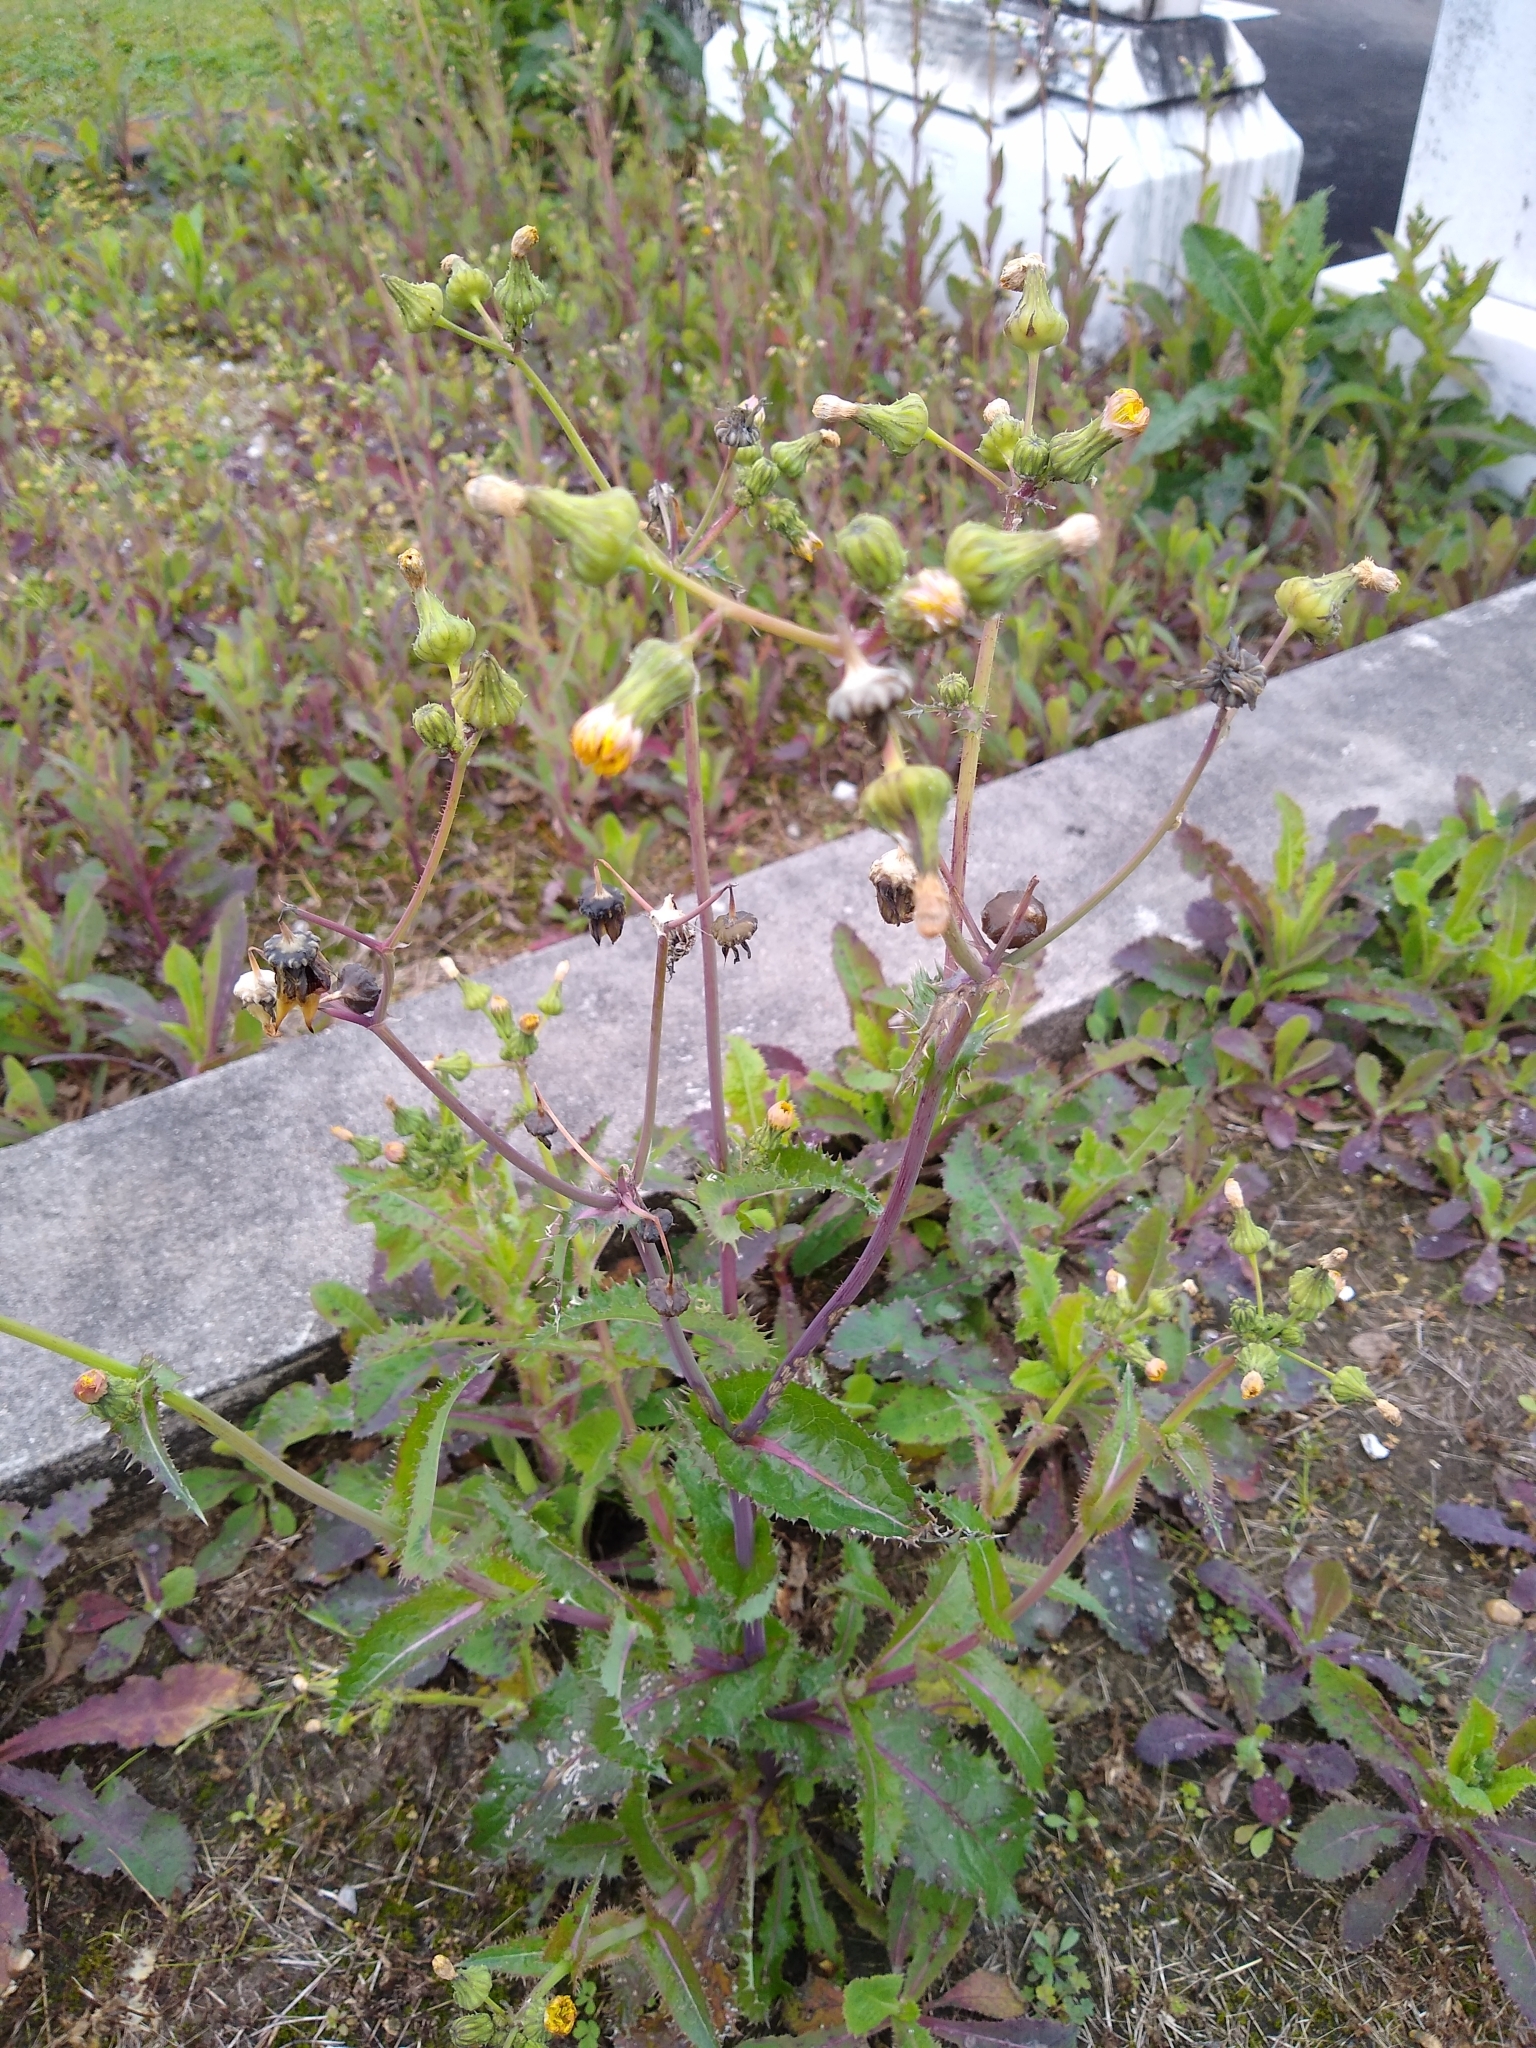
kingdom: Plantae
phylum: Tracheophyta
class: Magnoliopsida
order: Asterales
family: Asteraceae
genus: Sonchus
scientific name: Sonchus asper
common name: Prickly sow-thistle
